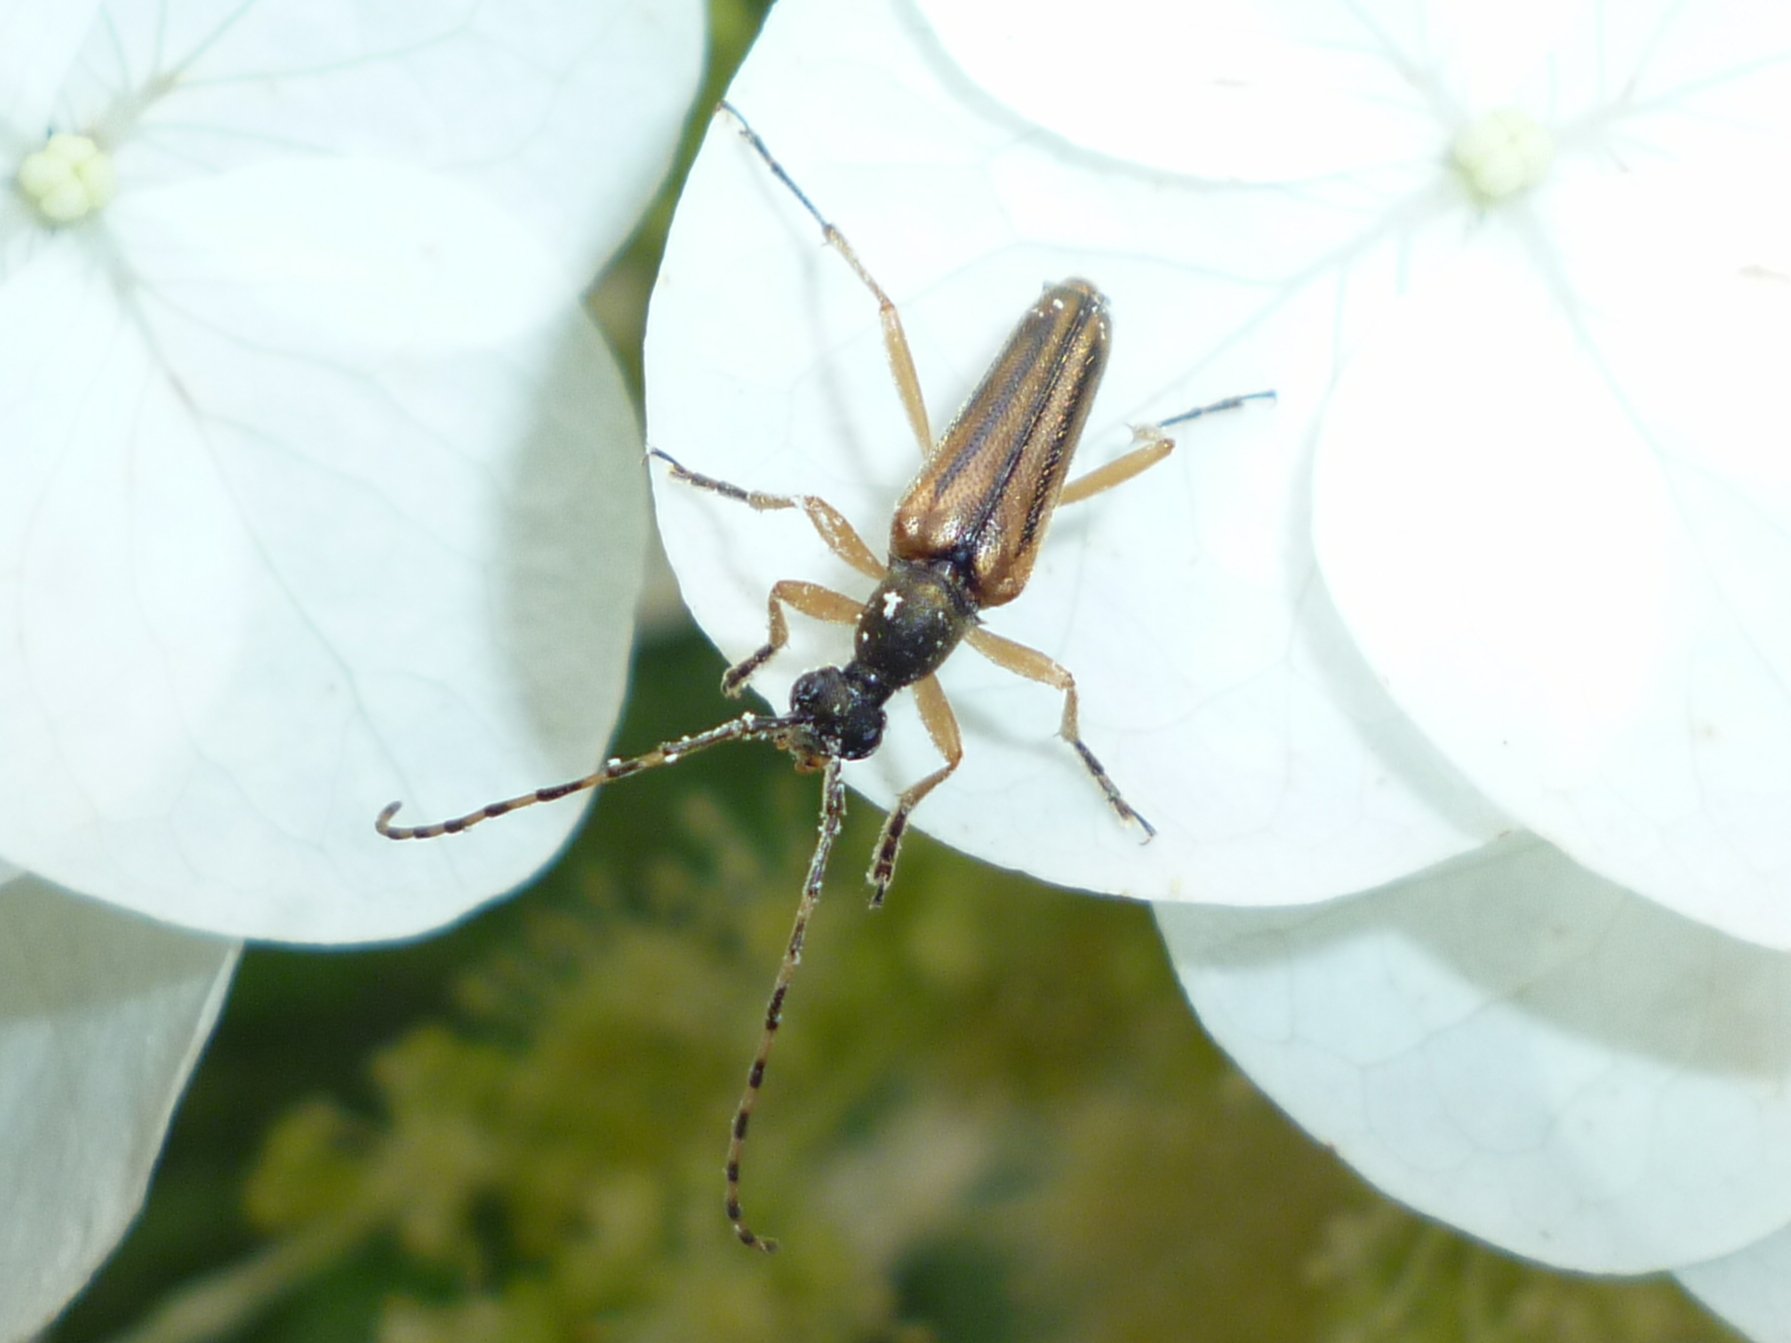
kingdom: Animalia
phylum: Arthropoda
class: Insecta
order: Coleoptera
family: Cerambycidae
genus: Analeptura
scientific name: Analeptura lineola
